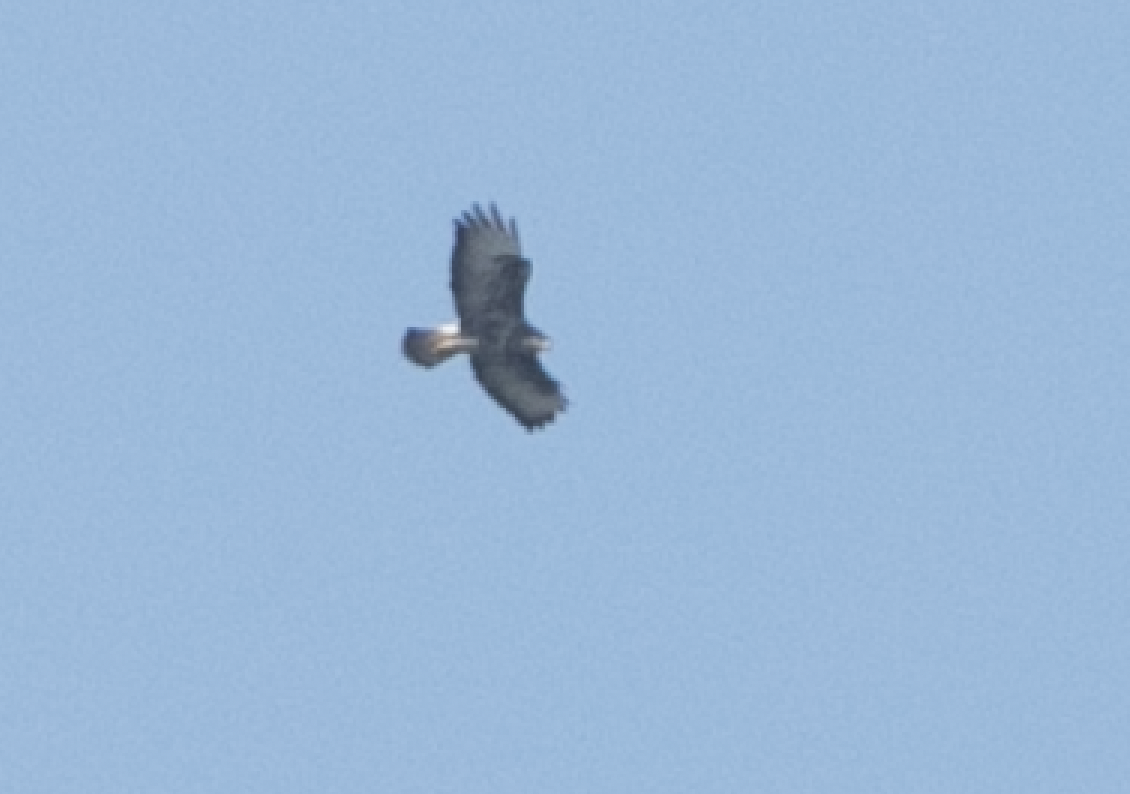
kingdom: Animalia
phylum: Chordata
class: Aves
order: Accipitriformes
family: Accipitridae
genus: Buteo
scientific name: Buteo buteo
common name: Common buzzard
